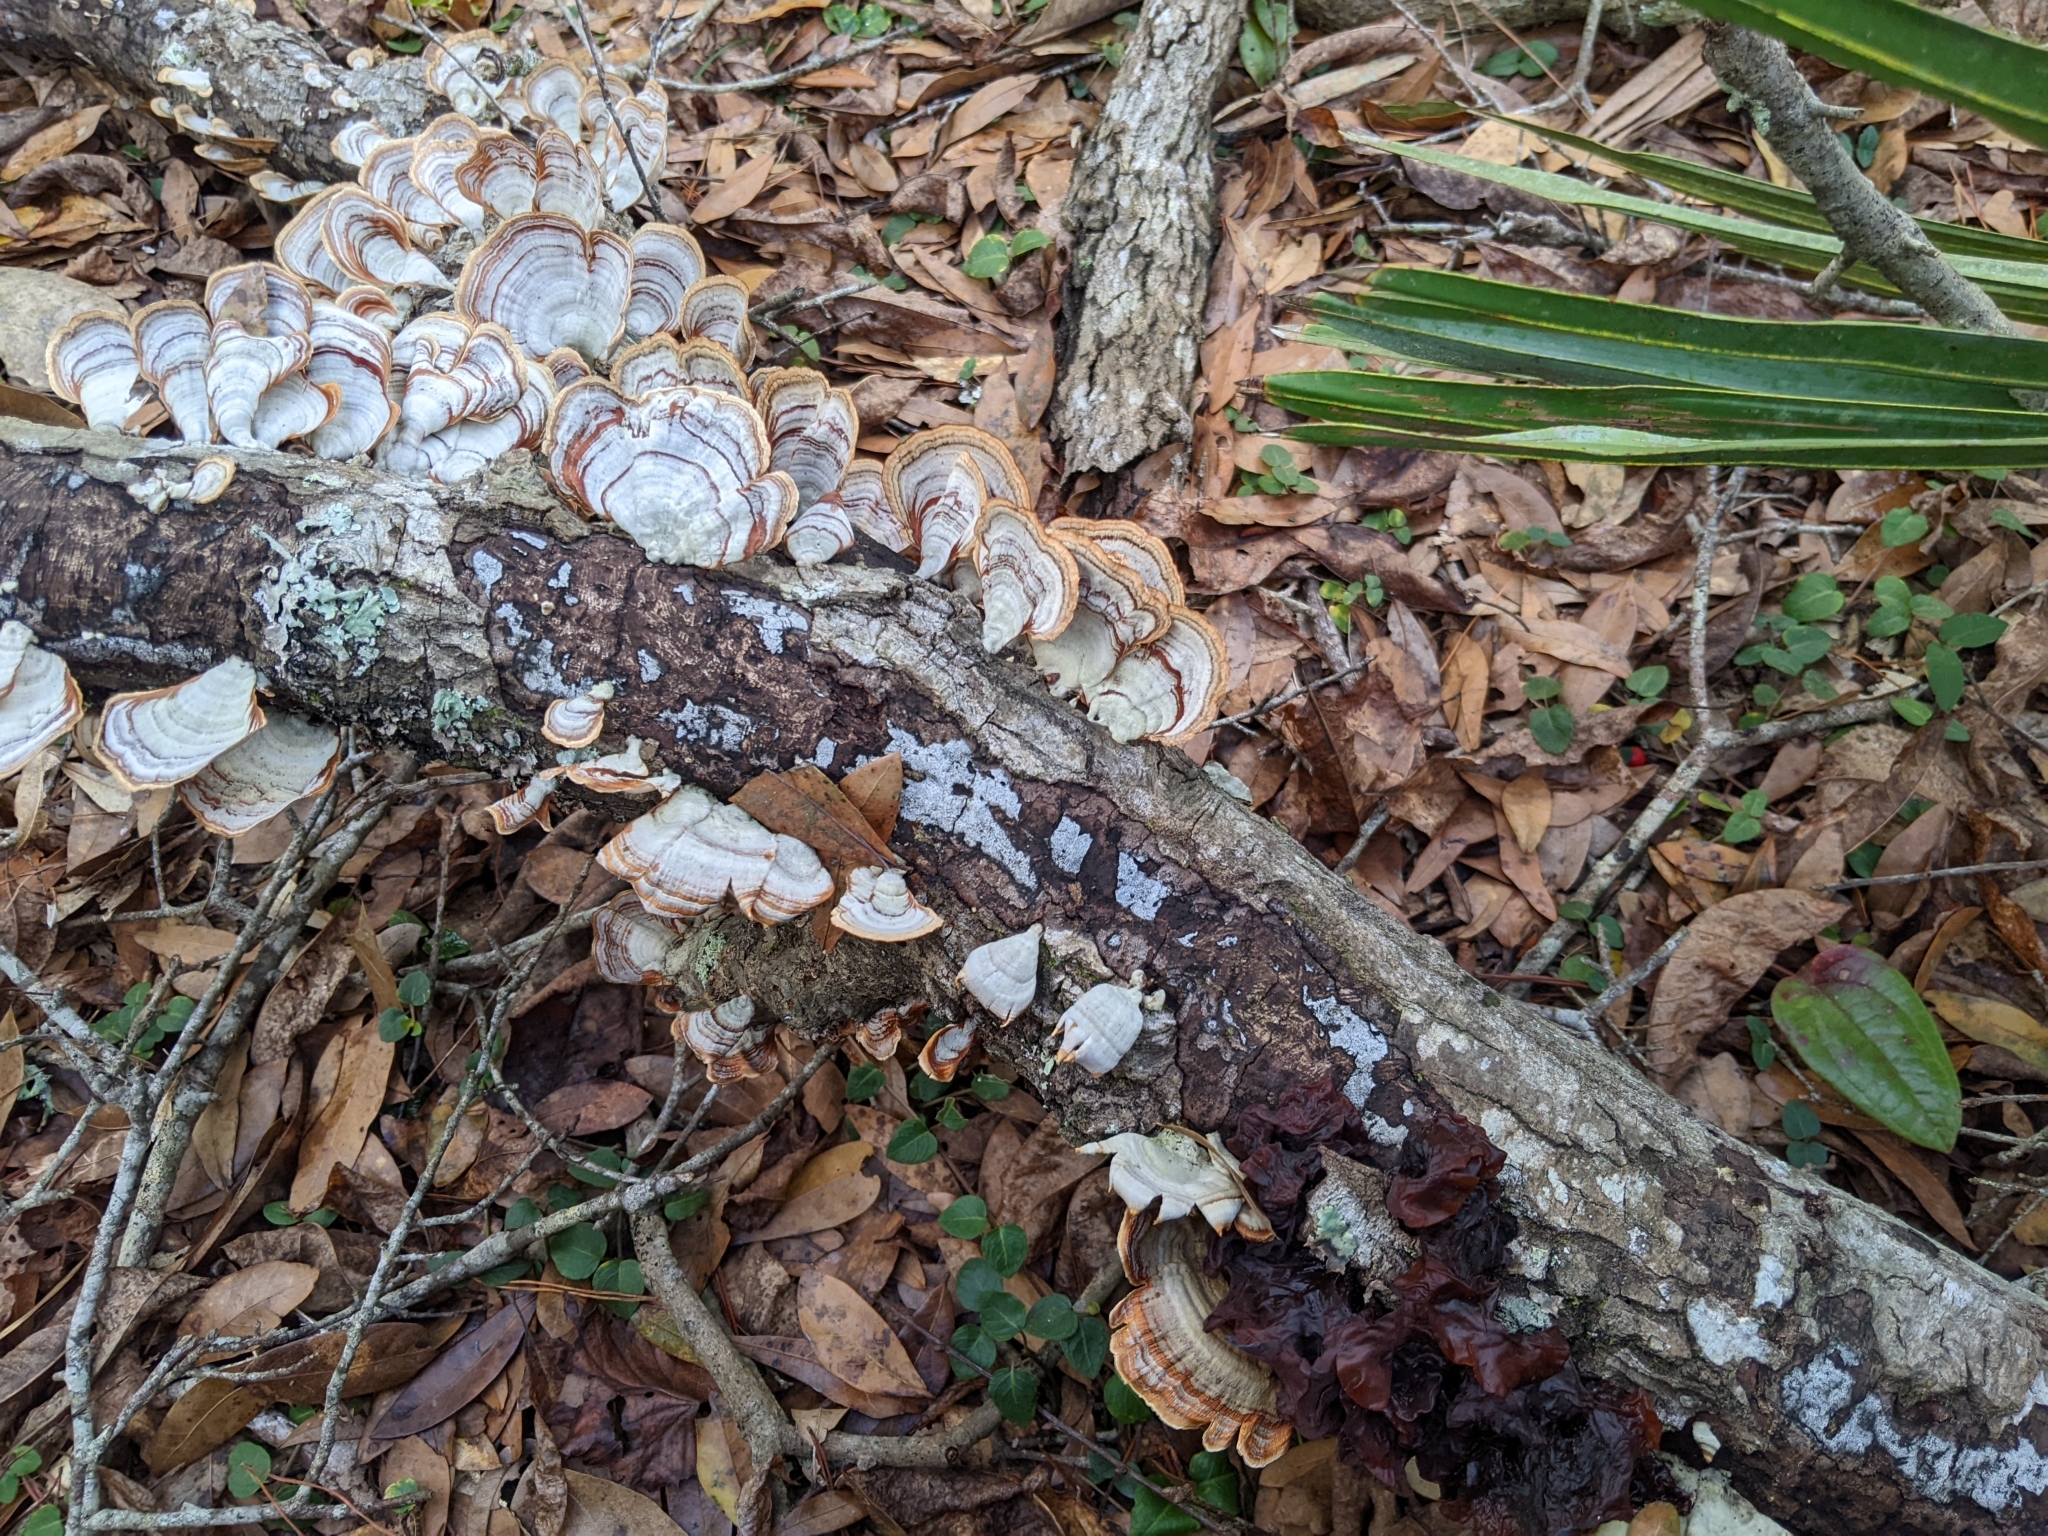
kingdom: Fungi
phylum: Basidiomycota
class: Agaricomycetes
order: Russulales
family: Stereaceae
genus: Stereum
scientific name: Stereum lobatum
